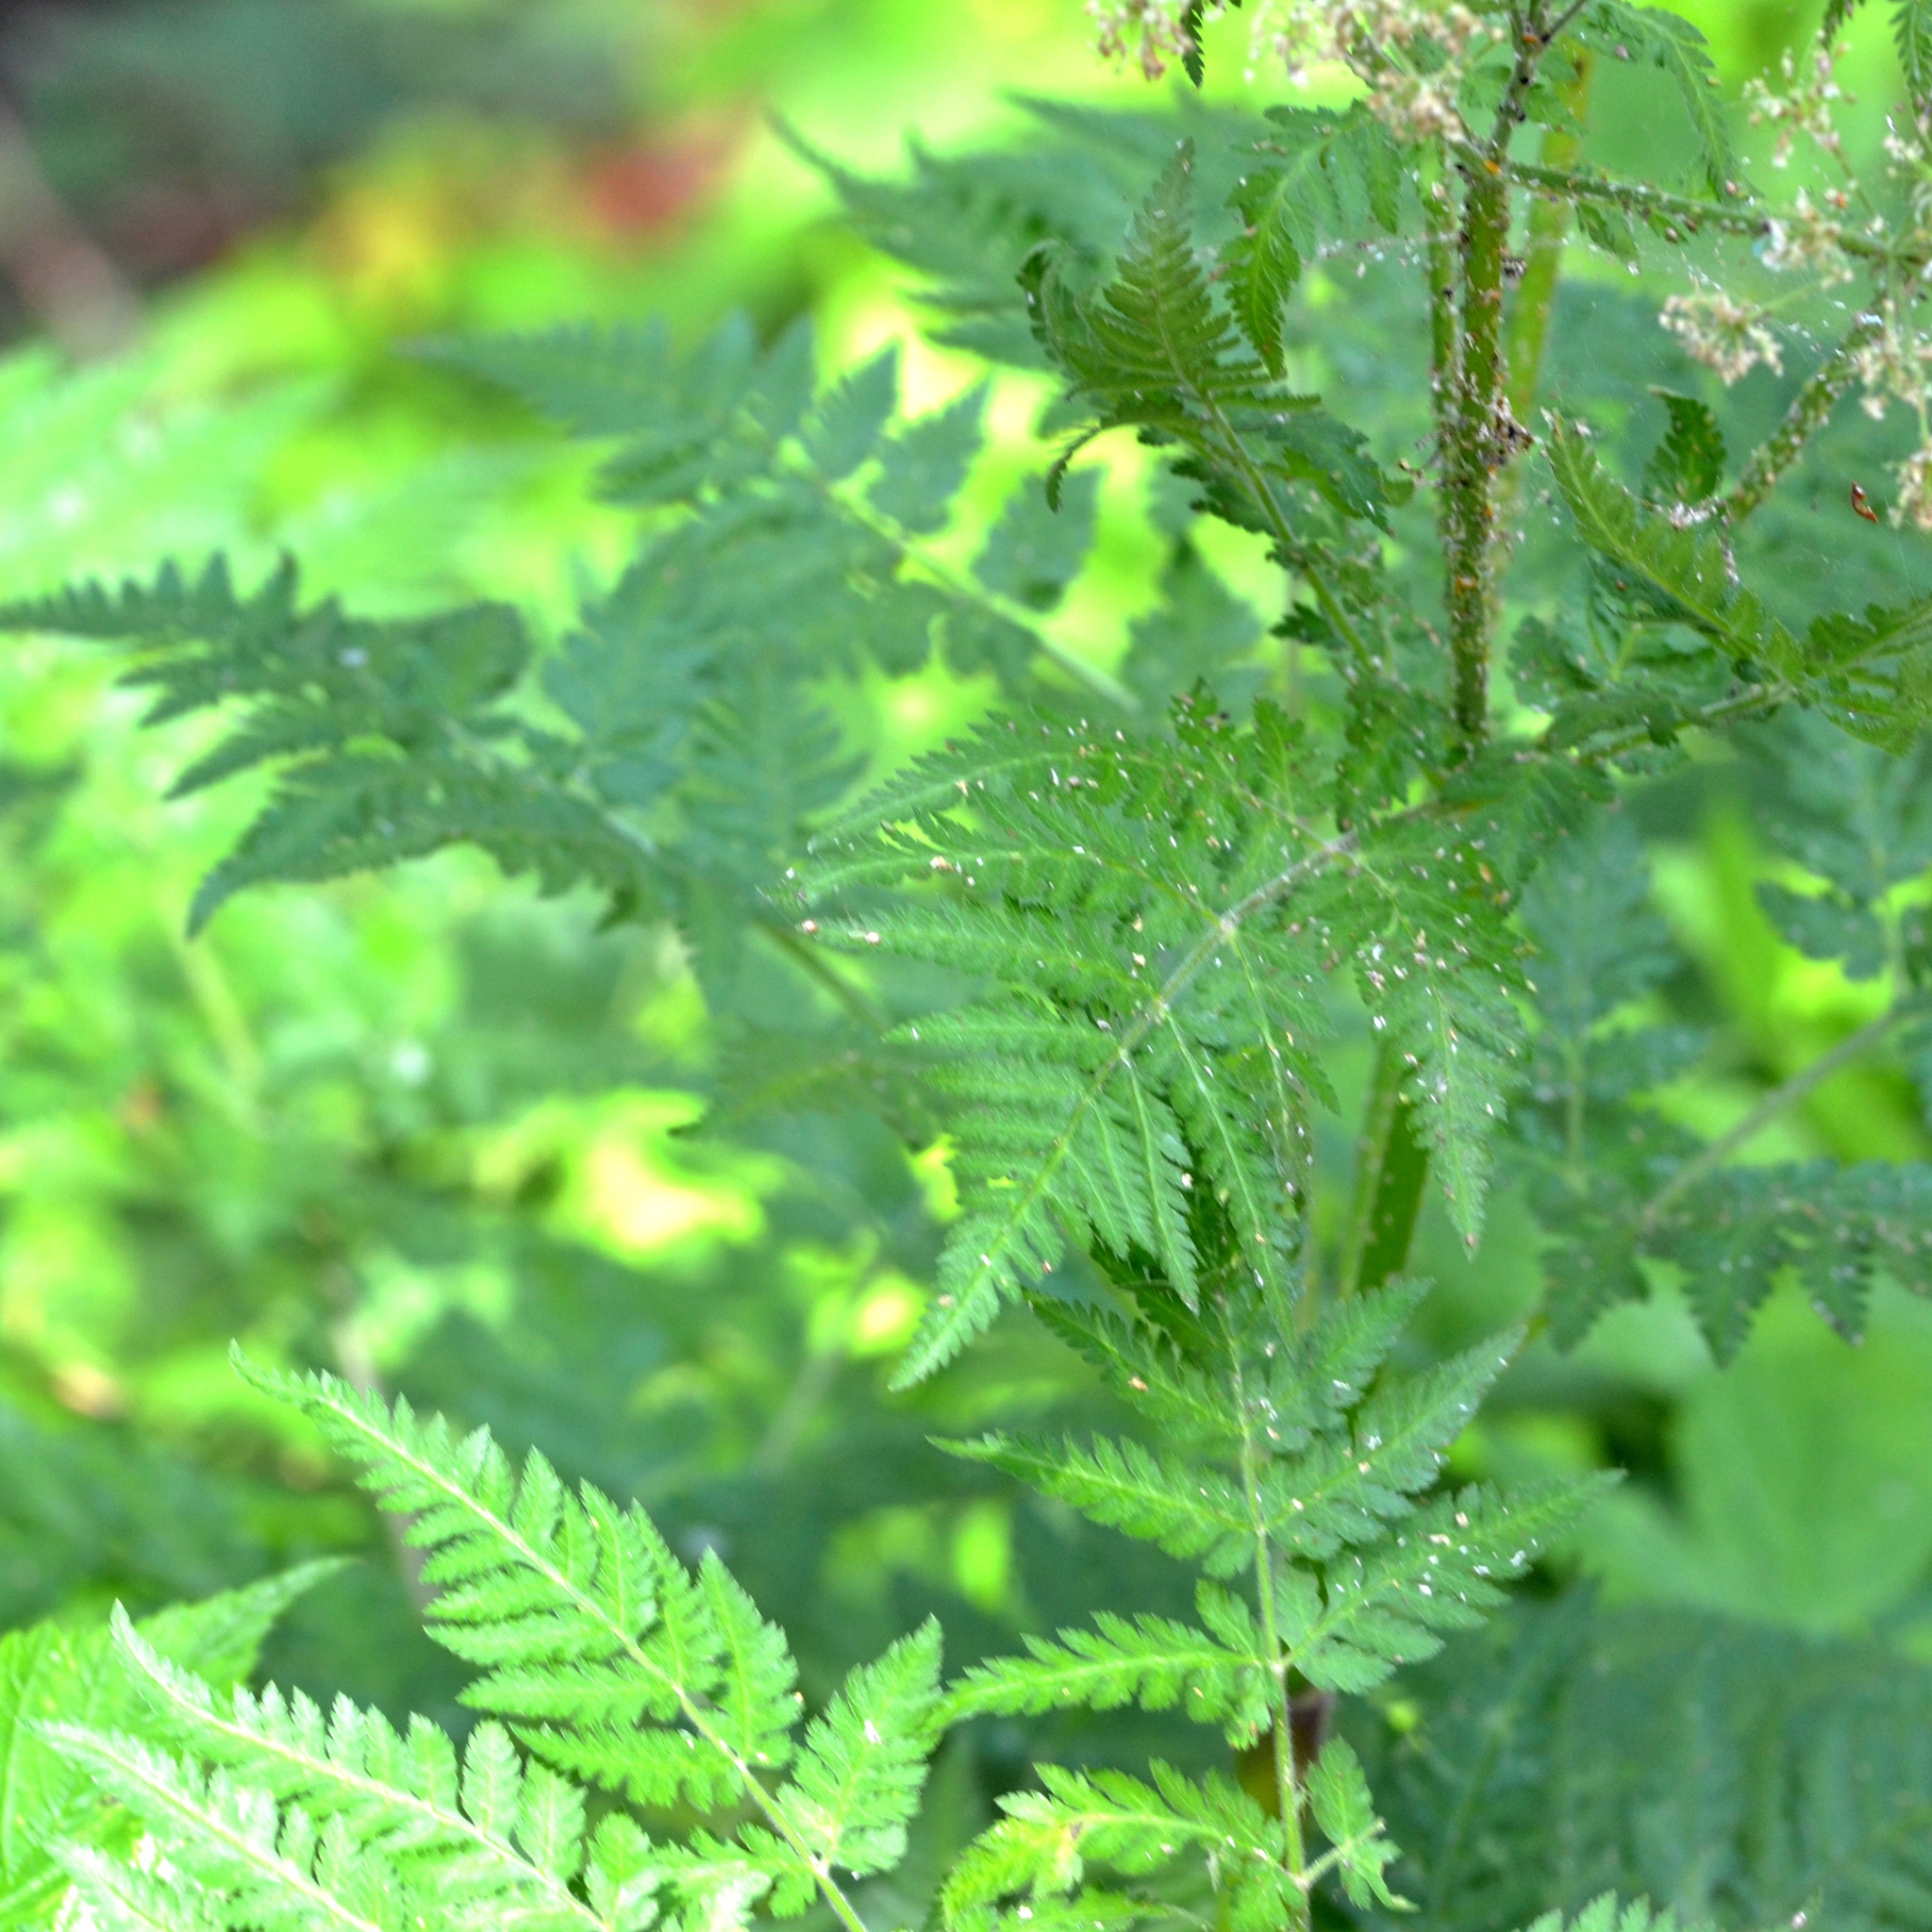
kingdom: Plantae
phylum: Tracheophyta
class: Magnoliopsida
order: Apiales
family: Apiaceae
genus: Myrrhis
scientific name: Myrrhis odorata
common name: Sweet cicely
